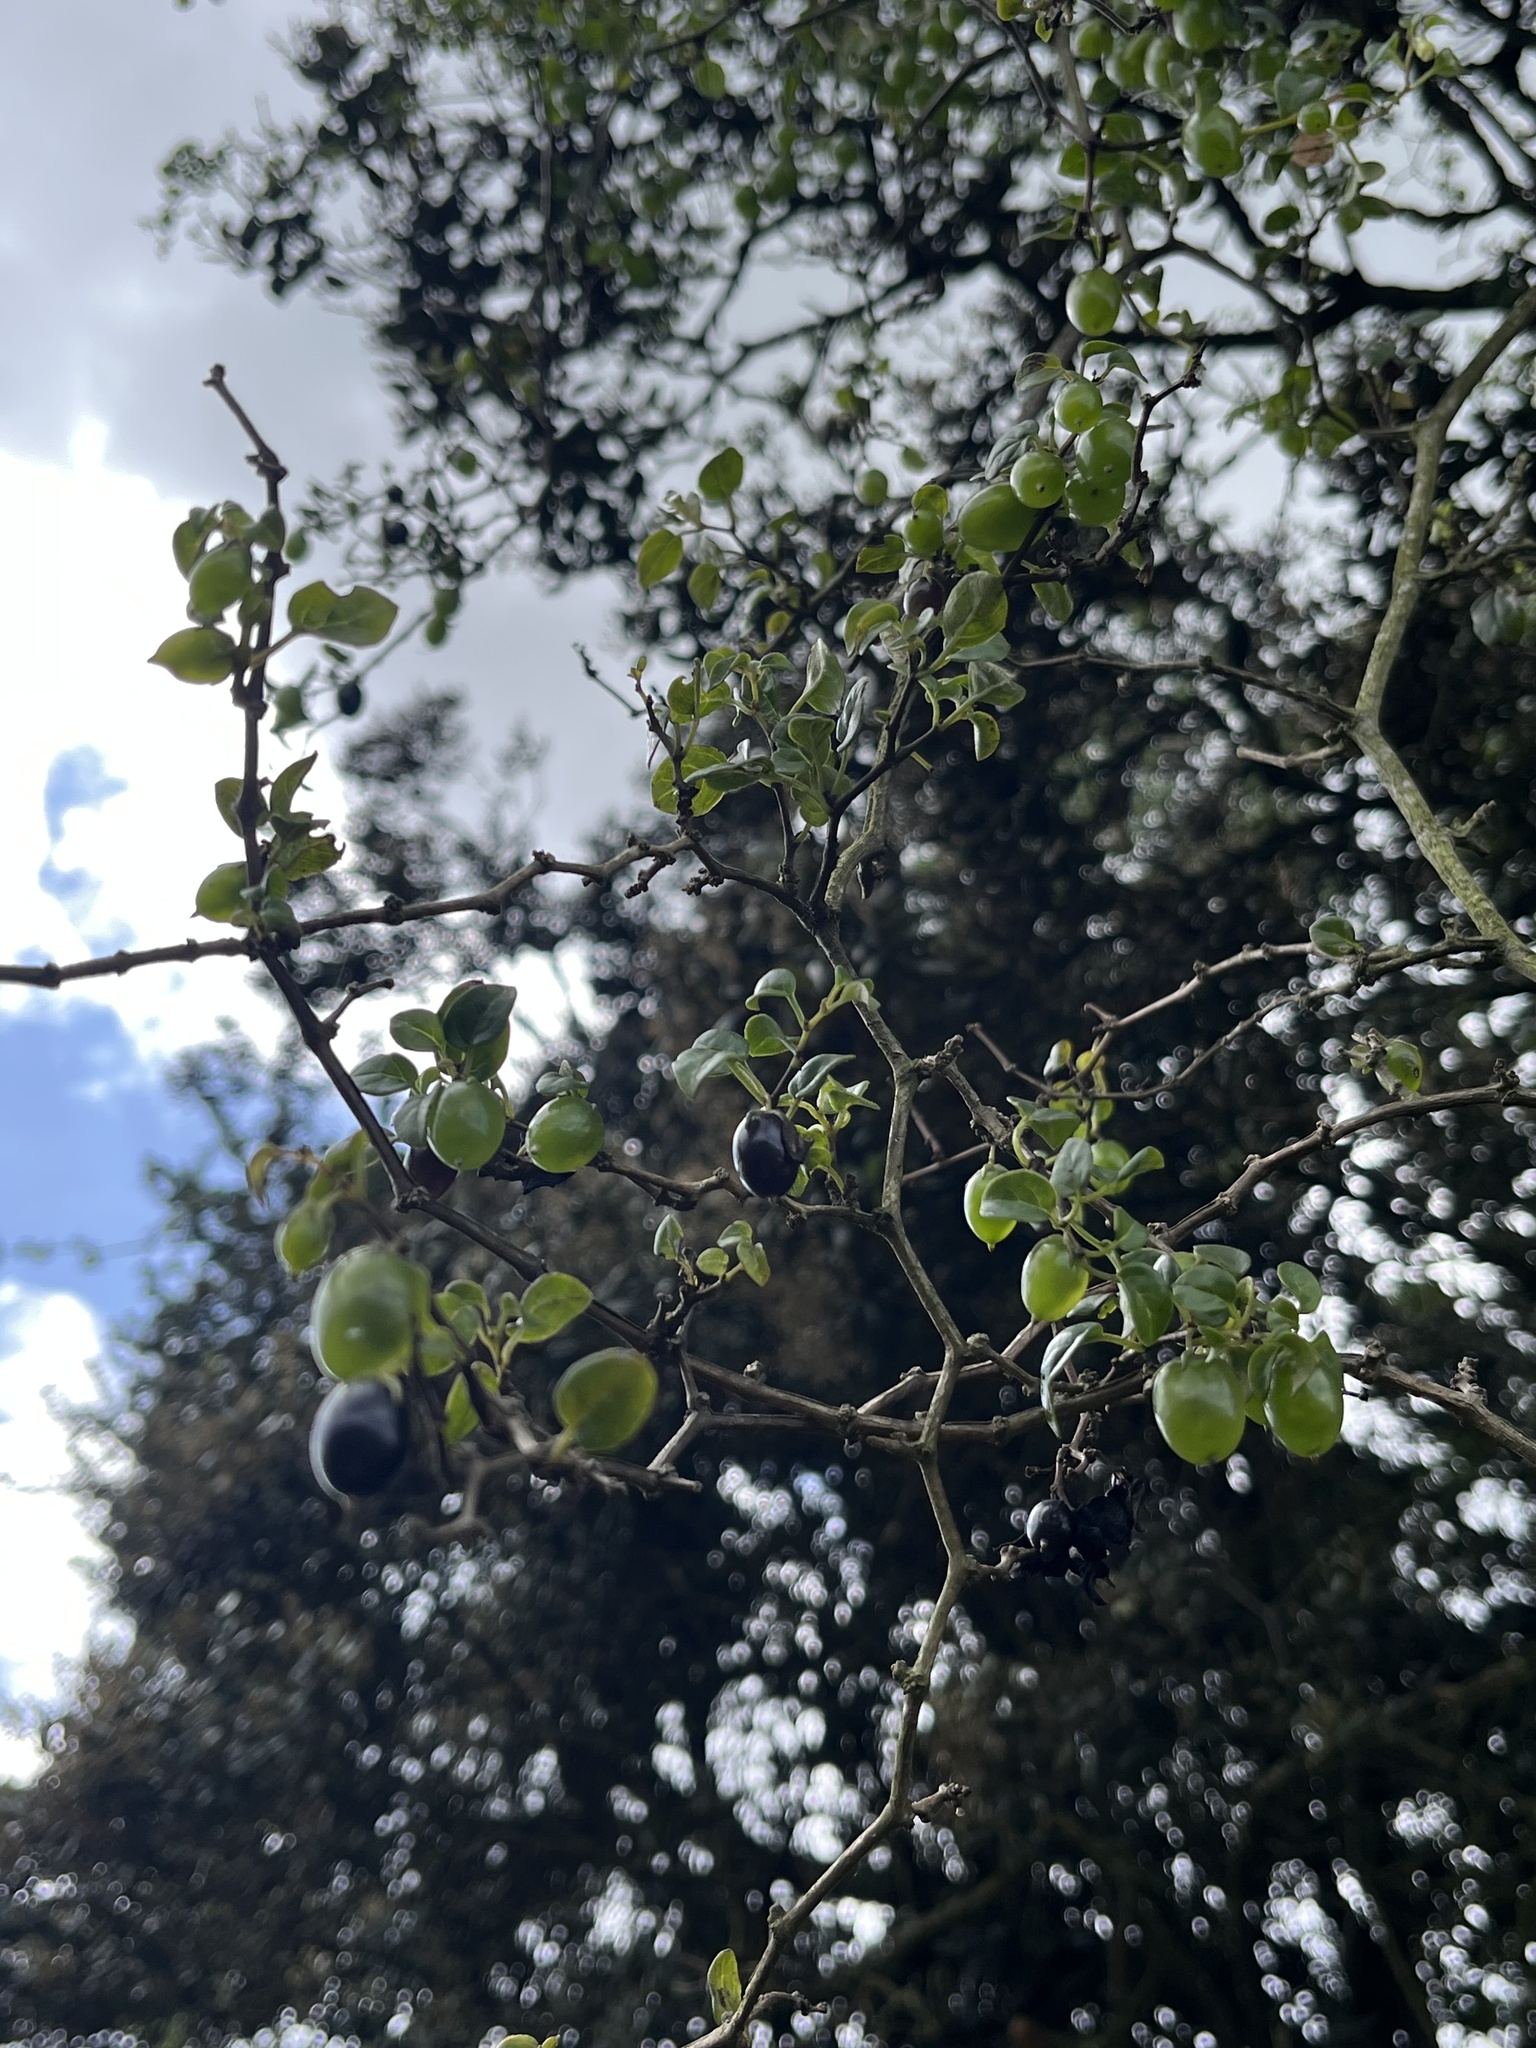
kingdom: Plantae
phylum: Tracheophyta
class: Magnoliopsida
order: Solanales
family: Solanaceae
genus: Salpichroa
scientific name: Salpichroa tristis
